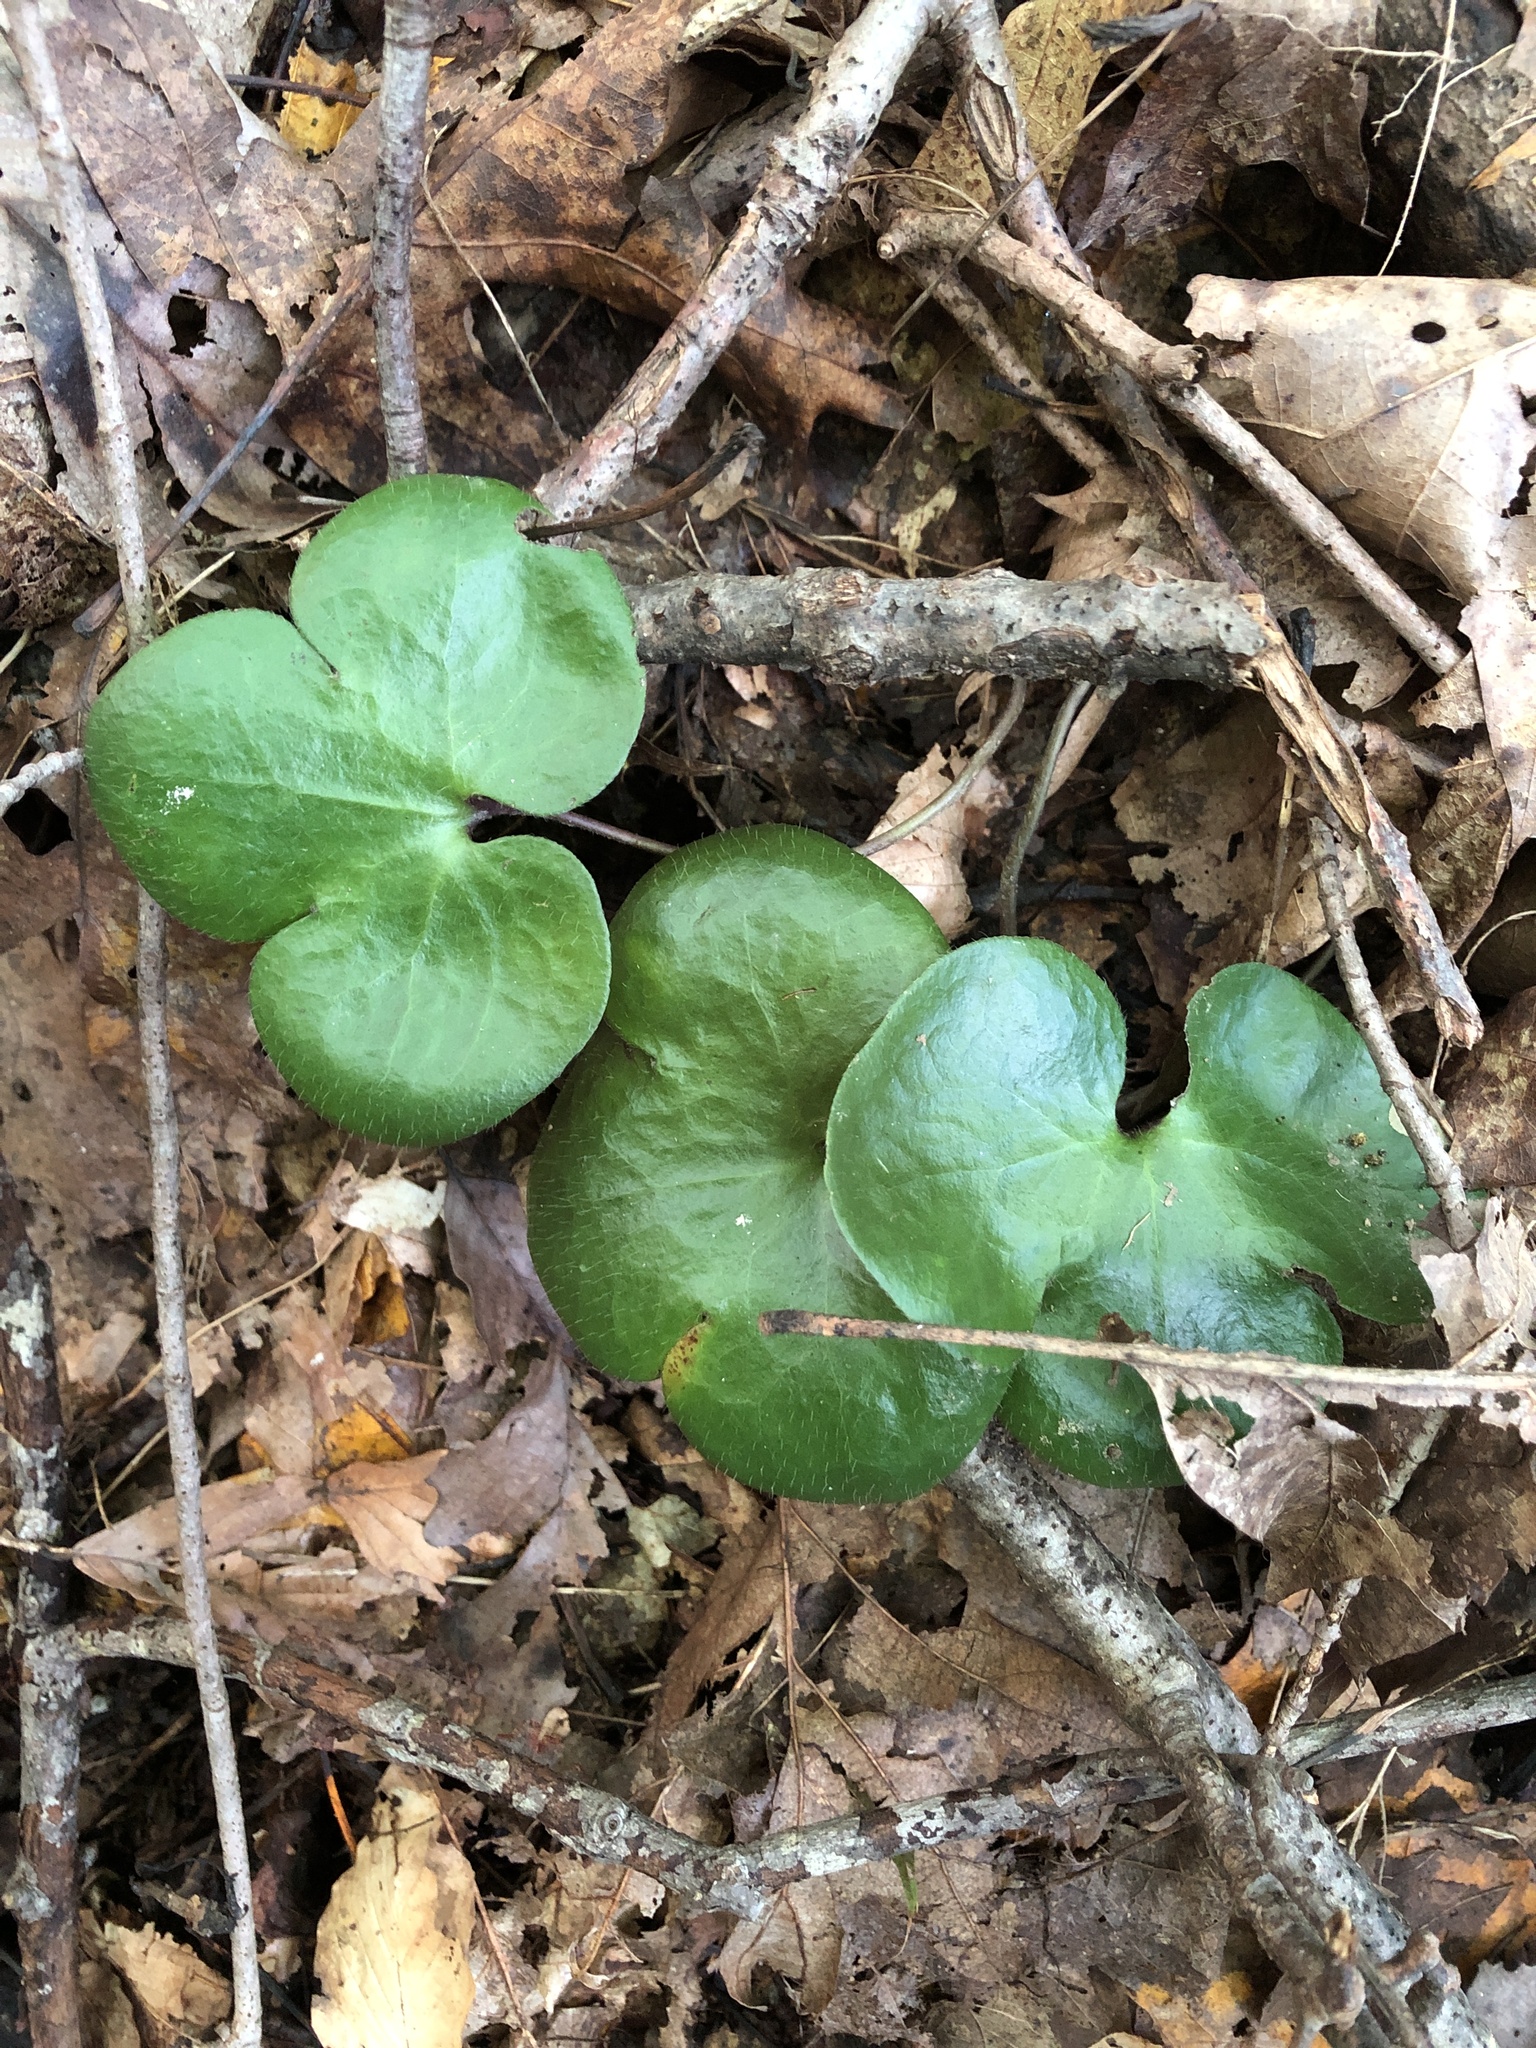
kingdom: Plantae
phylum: Tracheophyta
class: Magnoliopsida
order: Ranunculales
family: Ranunculaceae
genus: Hepatica
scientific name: Hepatica americana
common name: American hepatica
